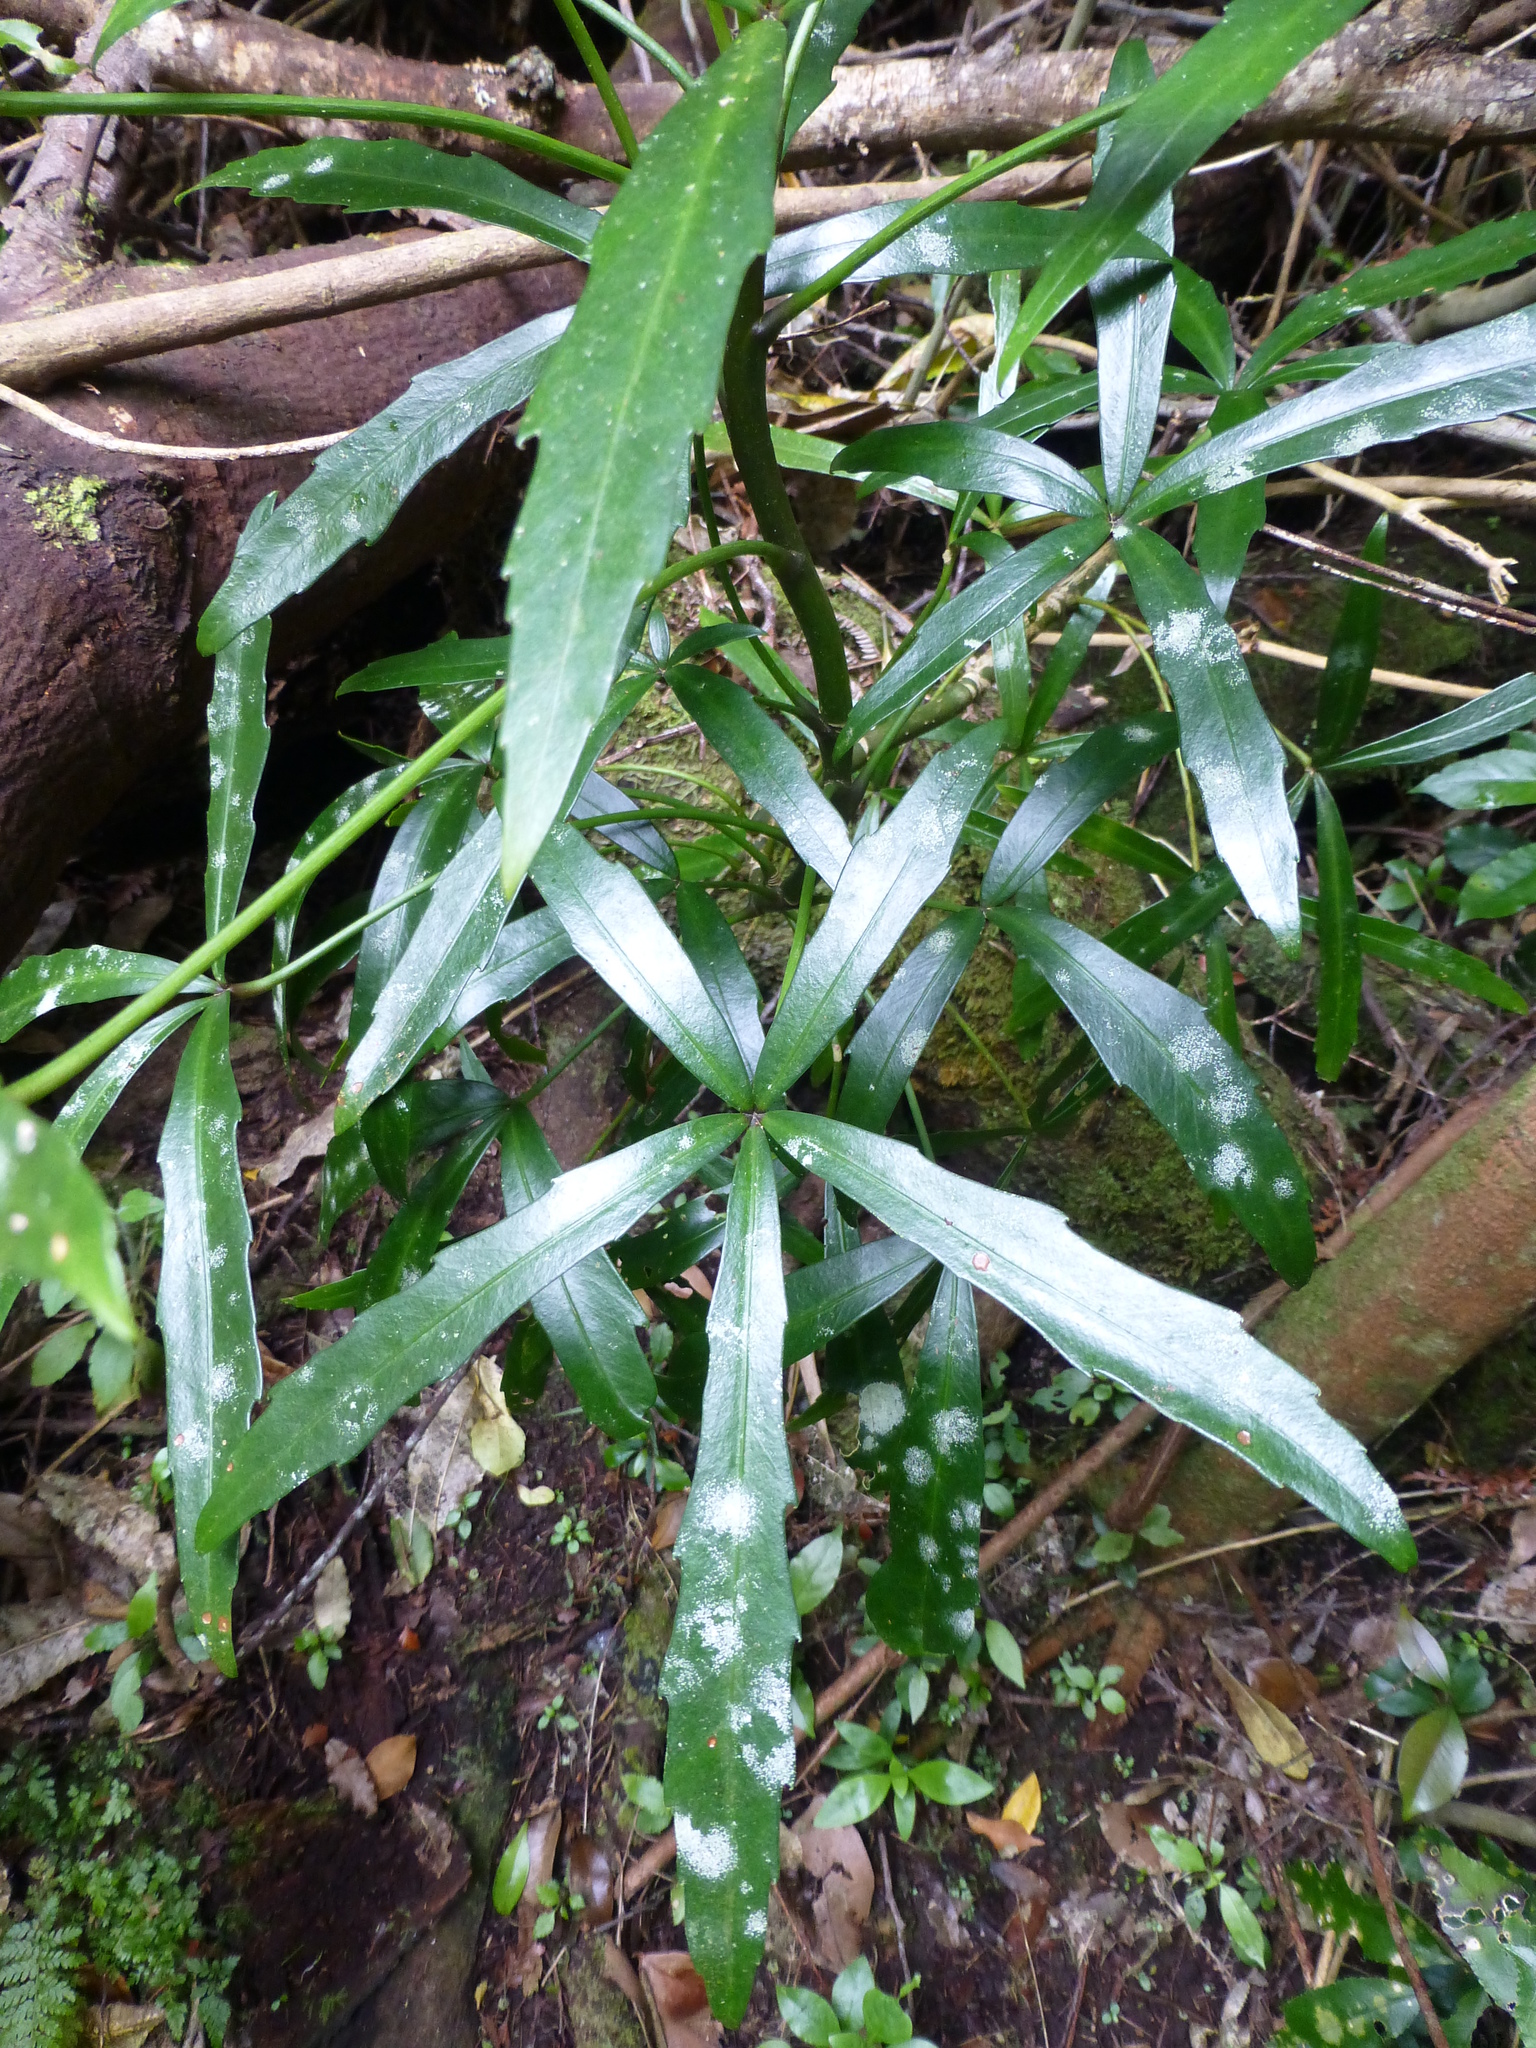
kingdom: Plantae
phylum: Tracheophyta
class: Magnoliopsida
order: Apiales
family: Araliaceae
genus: Pseudopanax
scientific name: Pseudopanax
